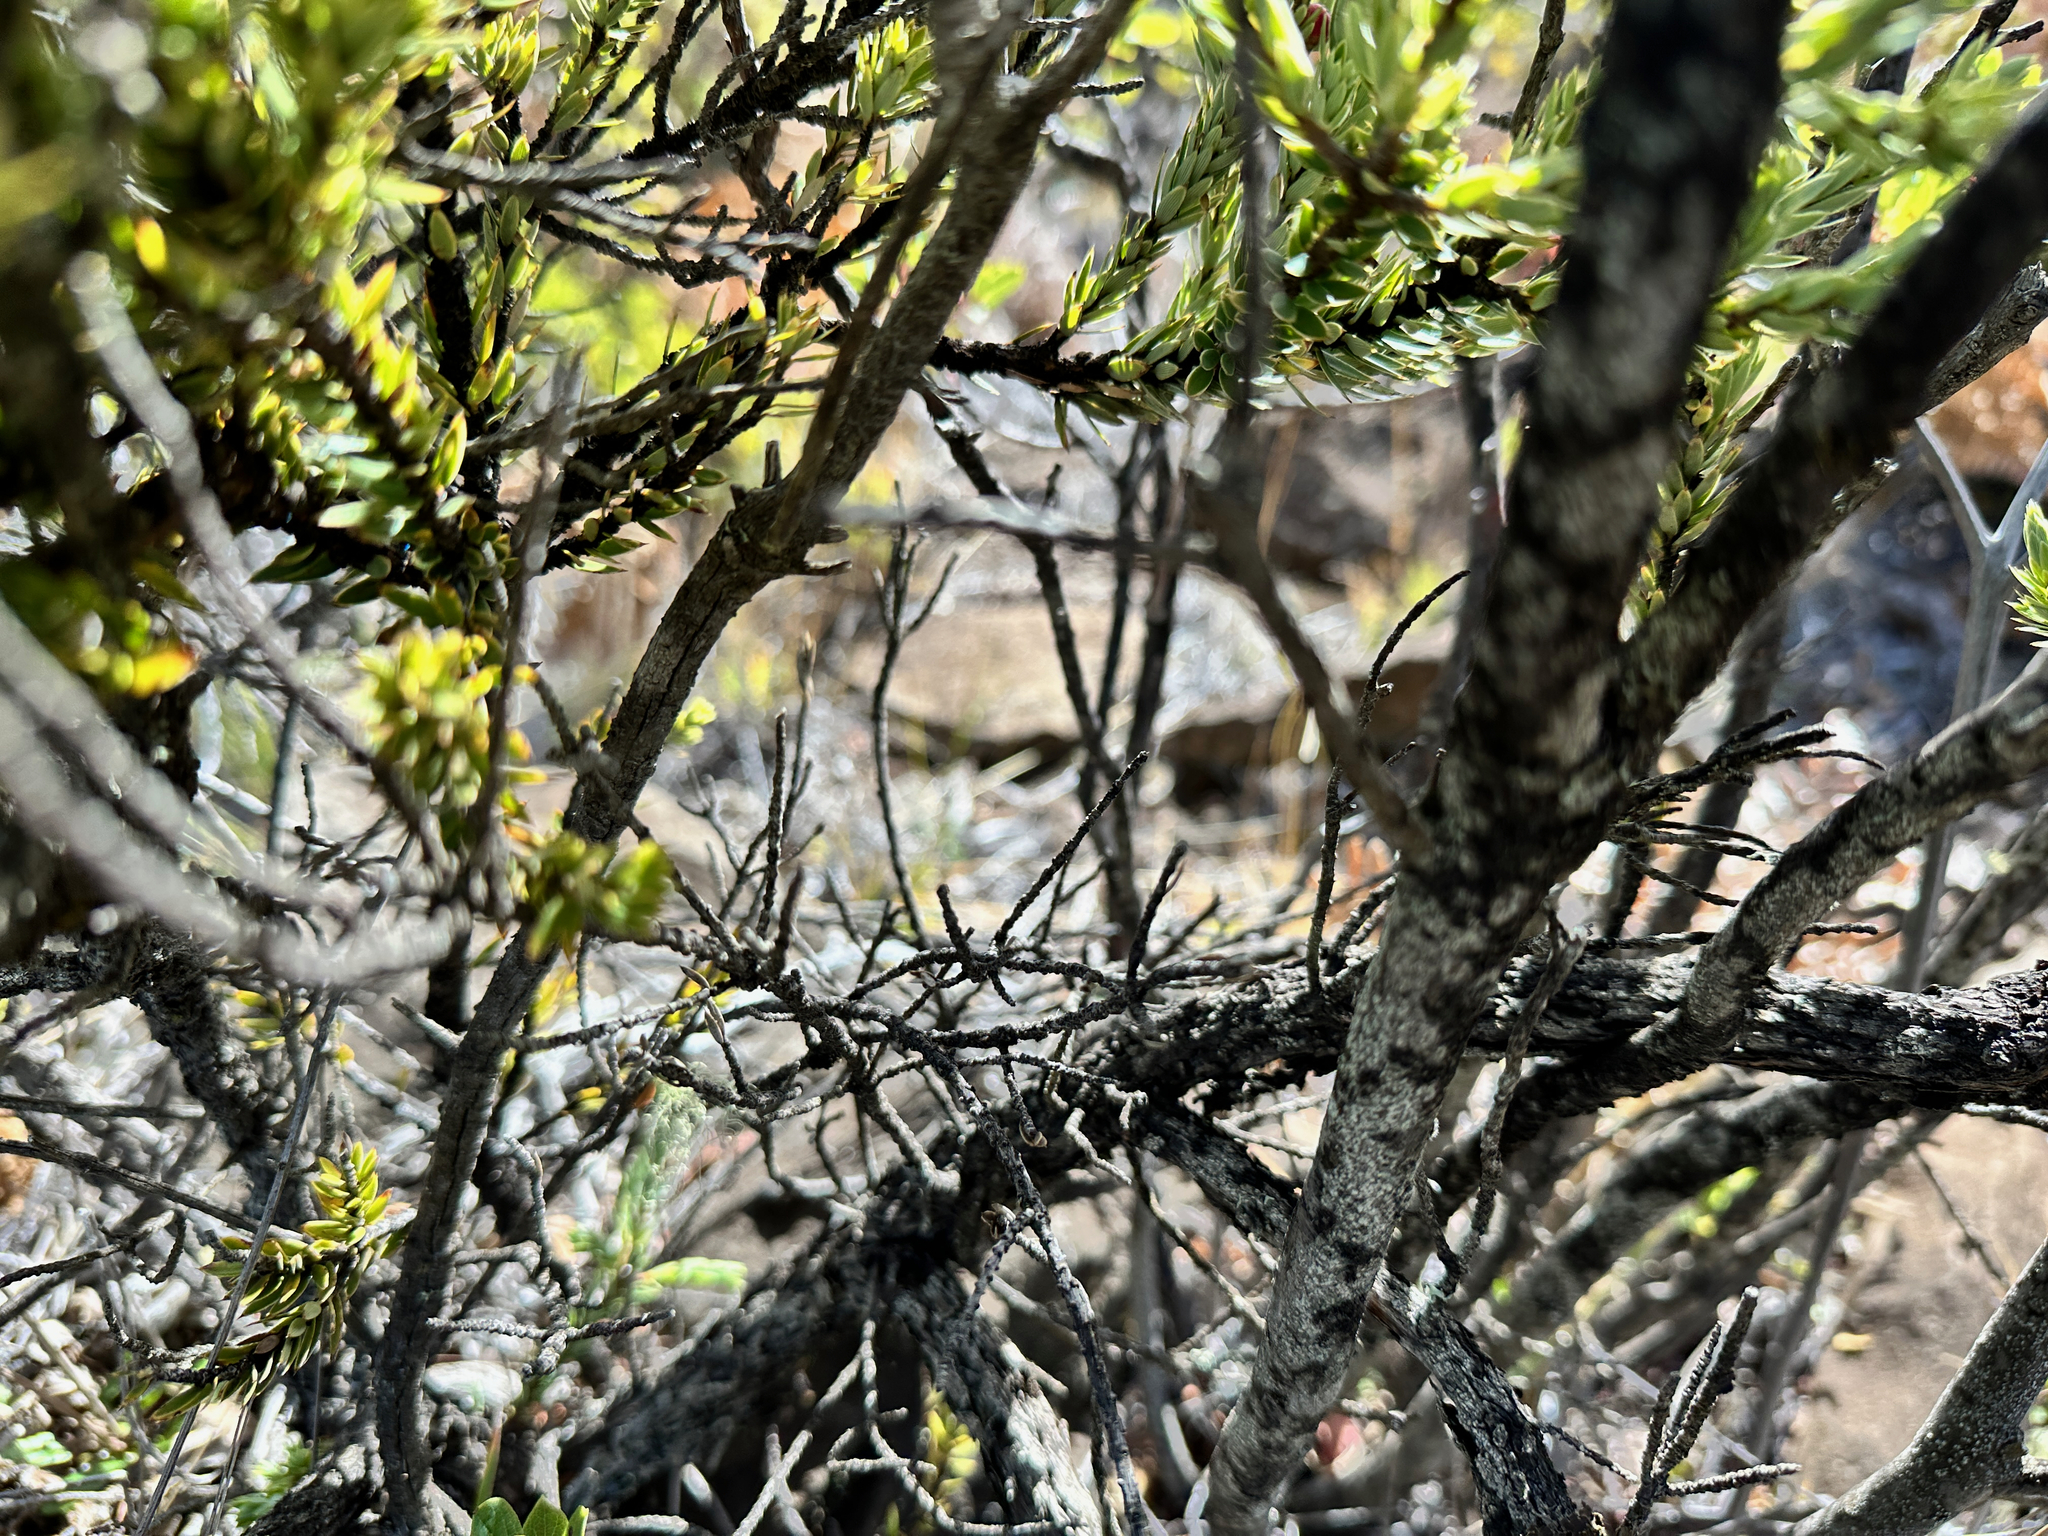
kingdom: Plantae
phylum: Tracheophyta
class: Magnoliopsida
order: Ericales
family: Ericaceae
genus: Leptecophylla
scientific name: Leptecophylla tameiameiae
